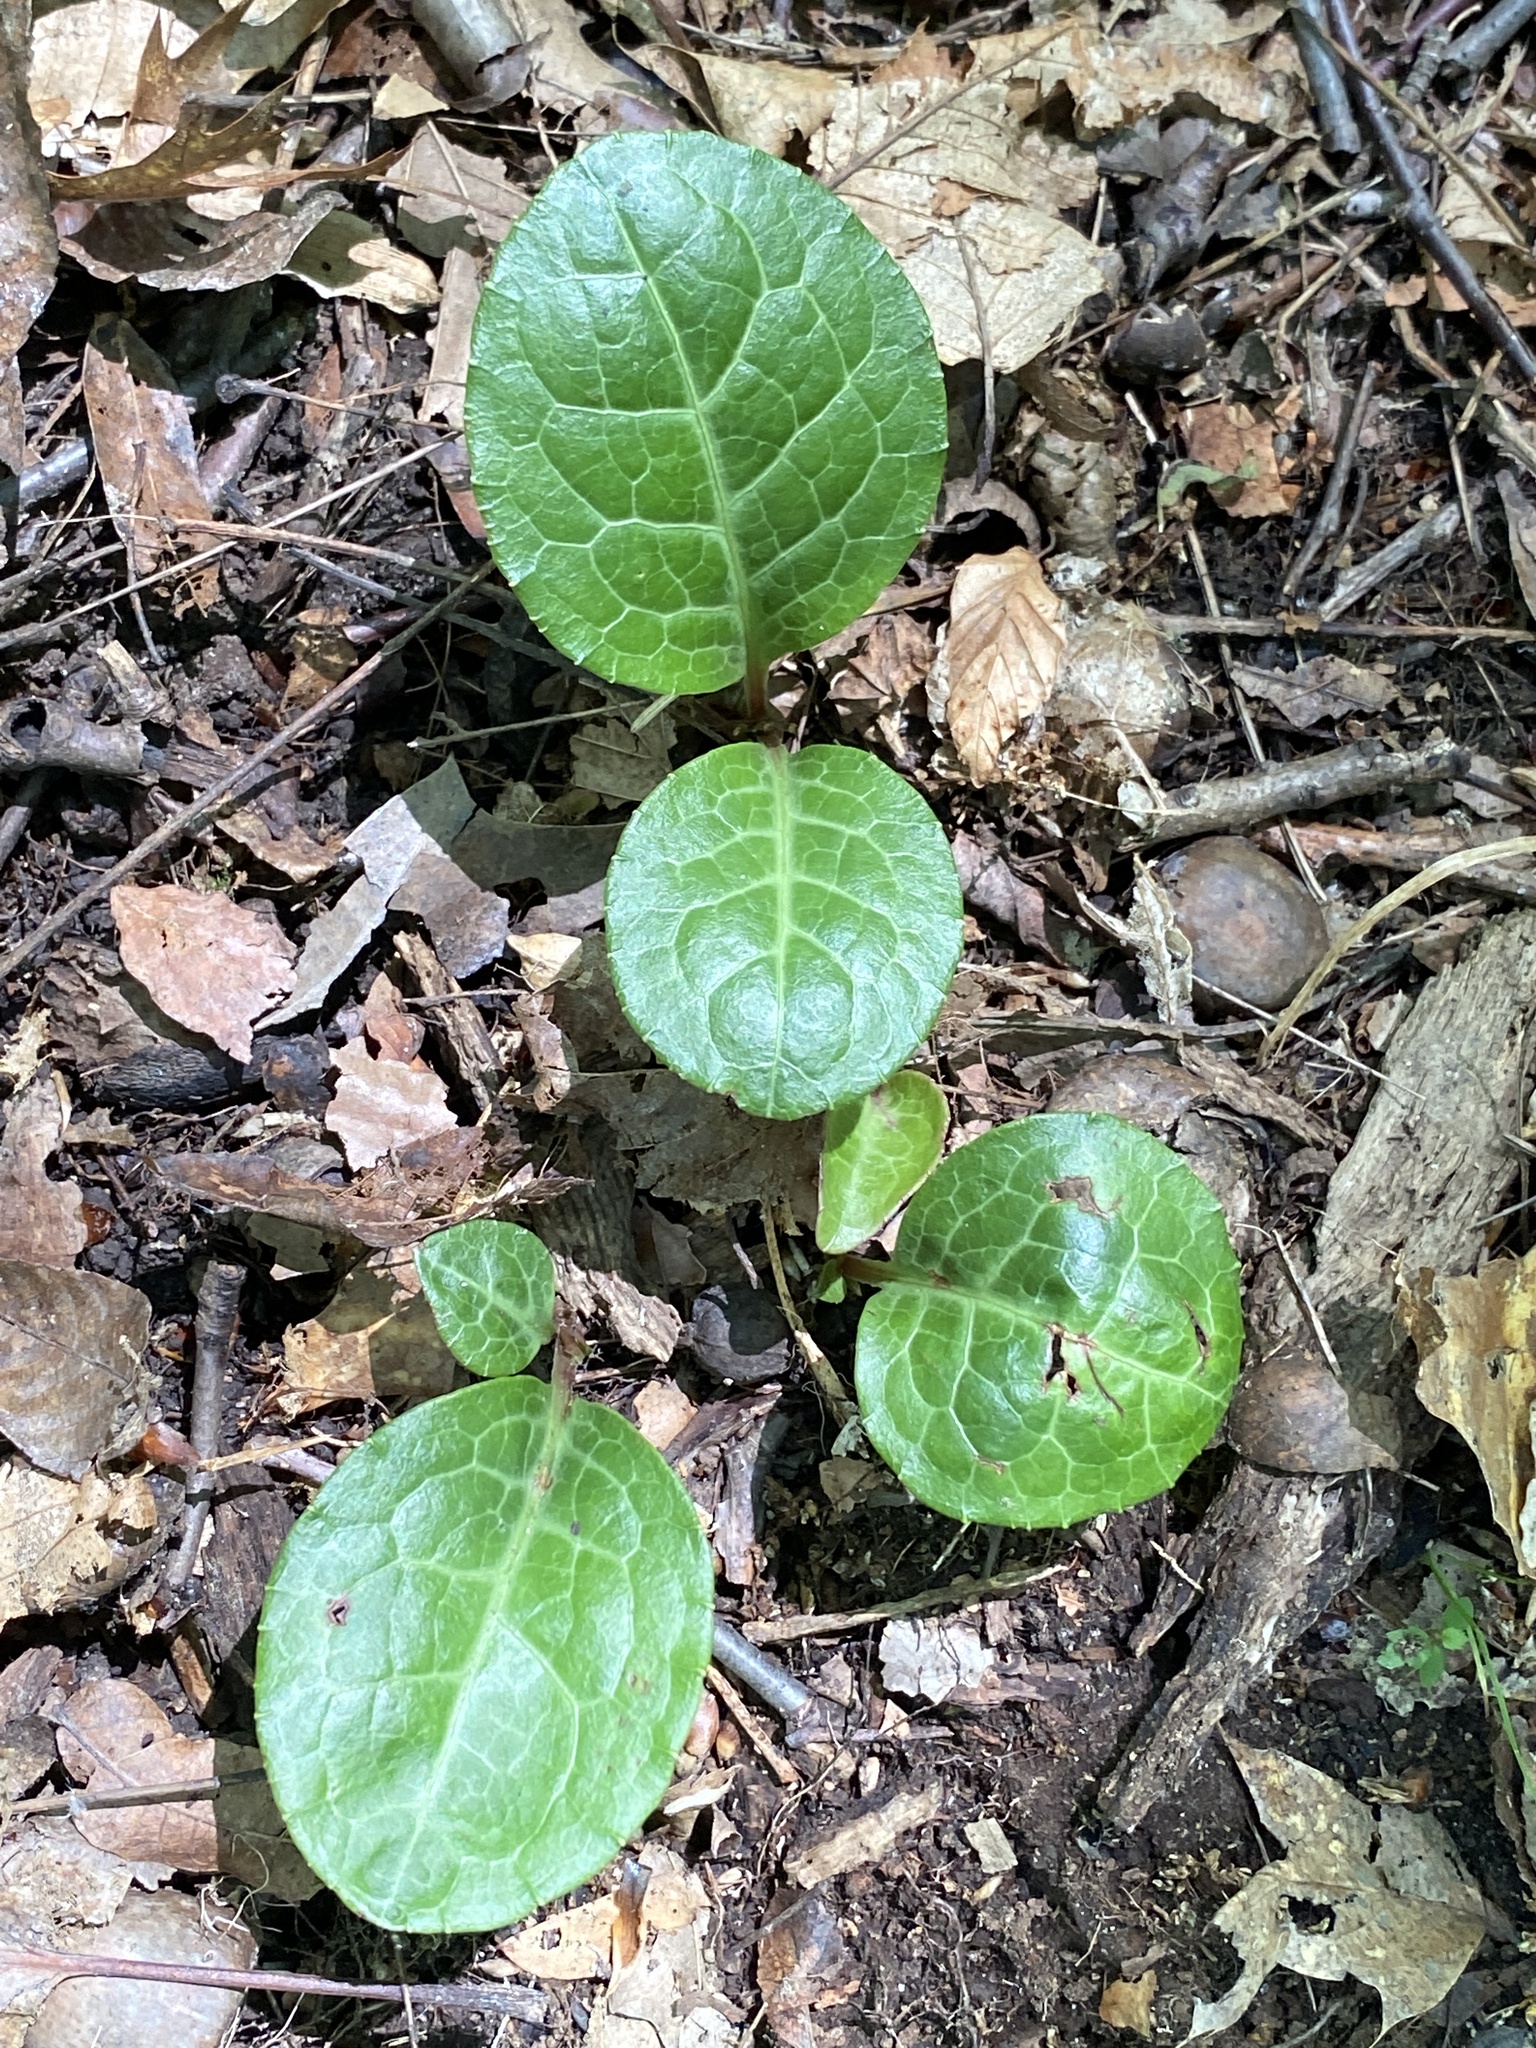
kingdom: Plantae
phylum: Tracheophyta
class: Magnoliopsida
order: Ericales
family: Ericaceae
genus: Pyrola
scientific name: Pyrola americana
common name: American wintergreen
